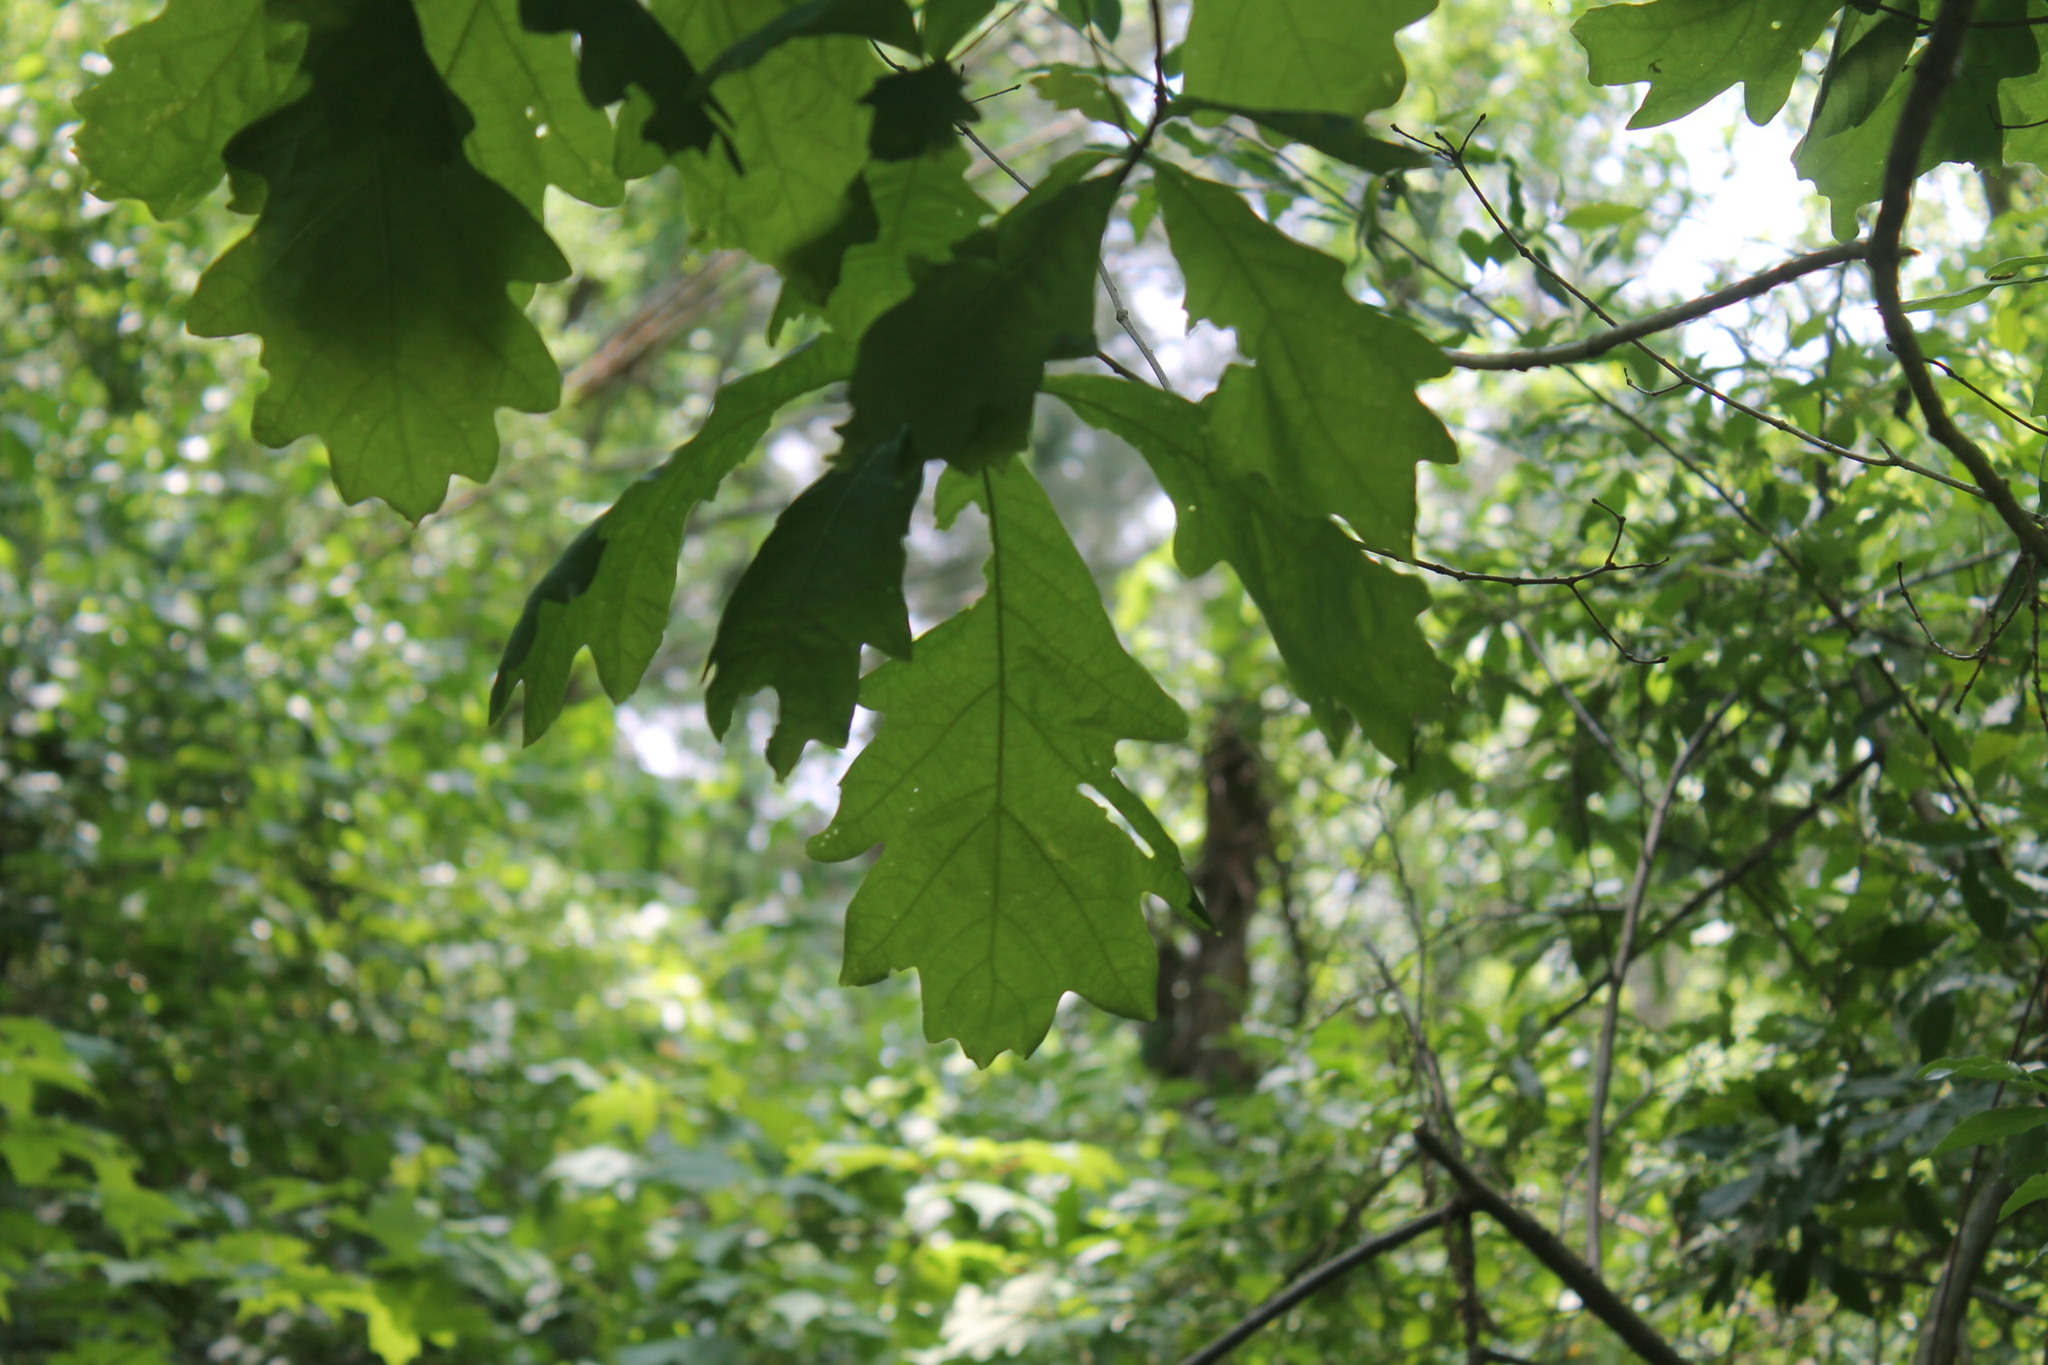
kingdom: Plantae
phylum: Tracheophyta
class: Magnoliopsida
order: Fagales
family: Fagaceae
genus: Quercus
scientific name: Quercus alba
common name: White oak
